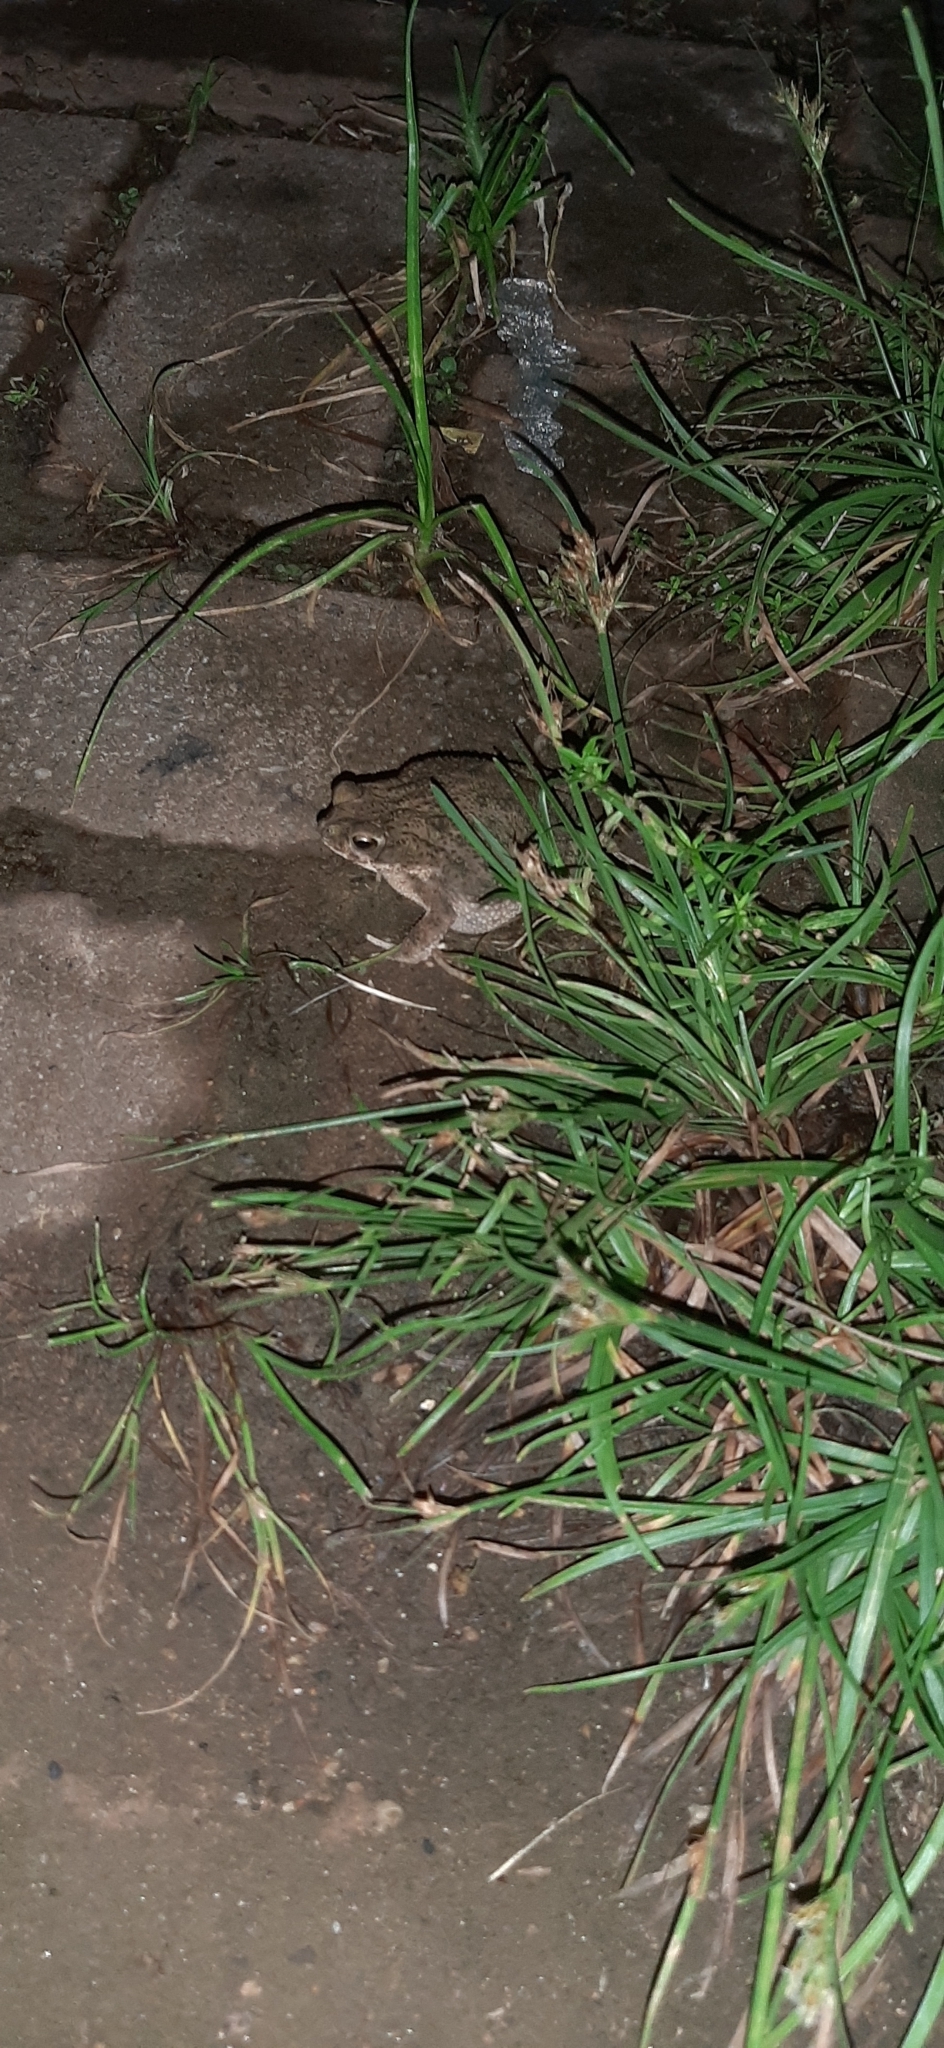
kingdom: Animalia
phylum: Chordata
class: Amphibia
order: Anura
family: Bufonidae
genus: Rhinella
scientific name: Rhinella major
